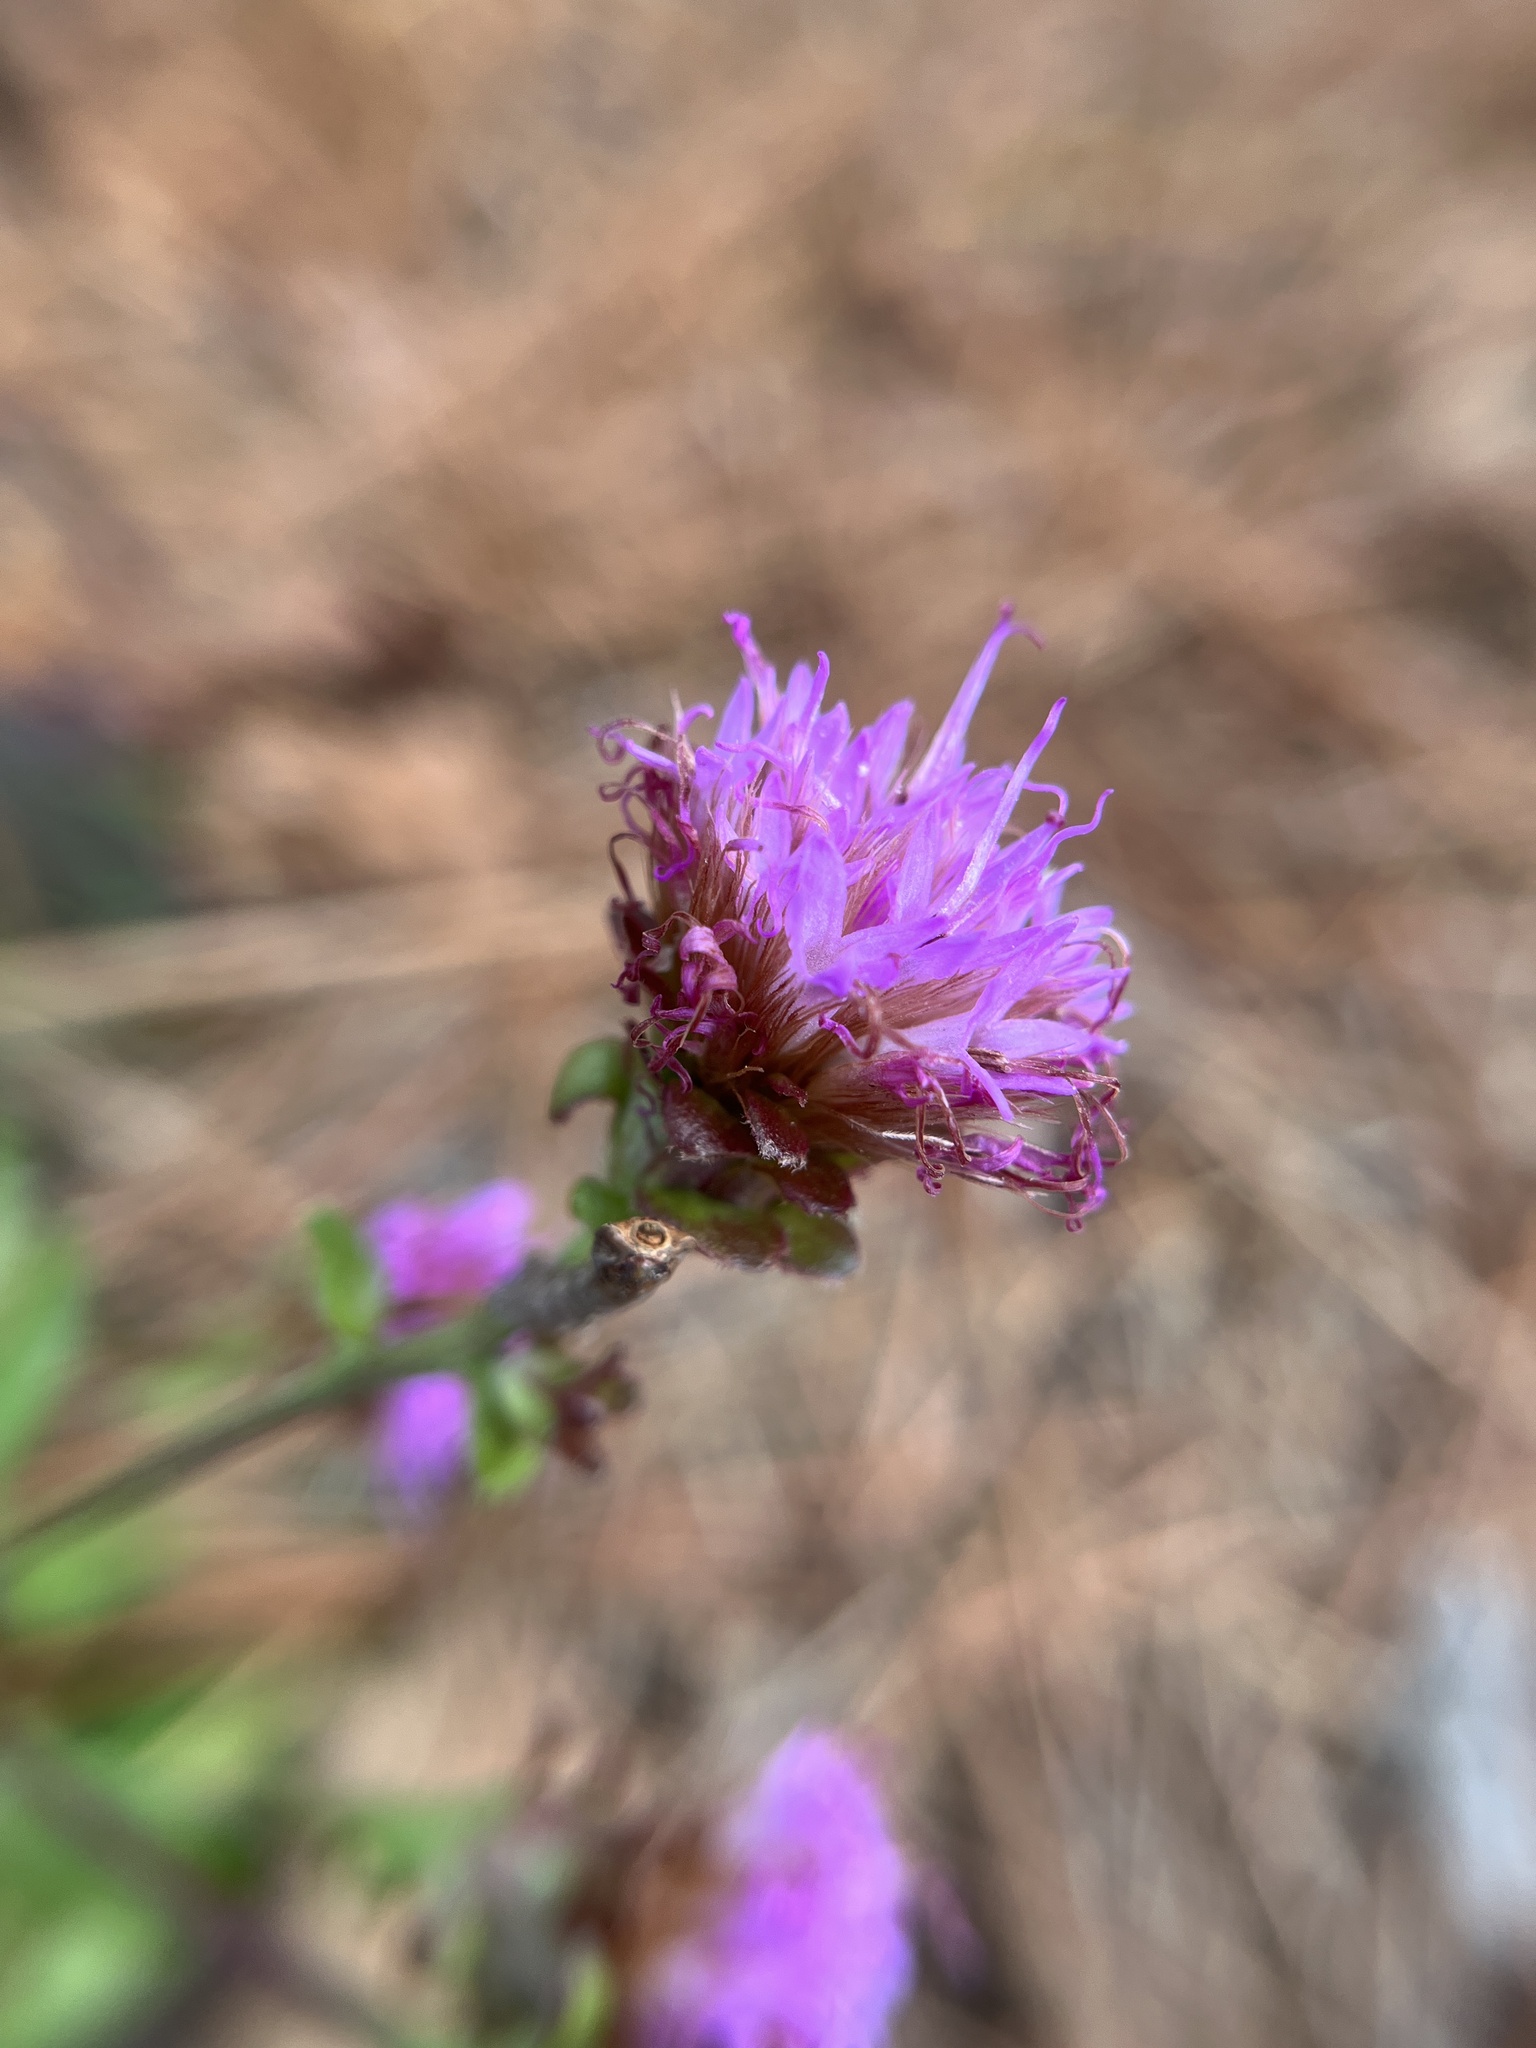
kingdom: Plantae
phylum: Tracheophyta
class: Magnoliopsida
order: Asterales
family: Asteraceae
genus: Carphephorus
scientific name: Carphephorus bellidifolius
